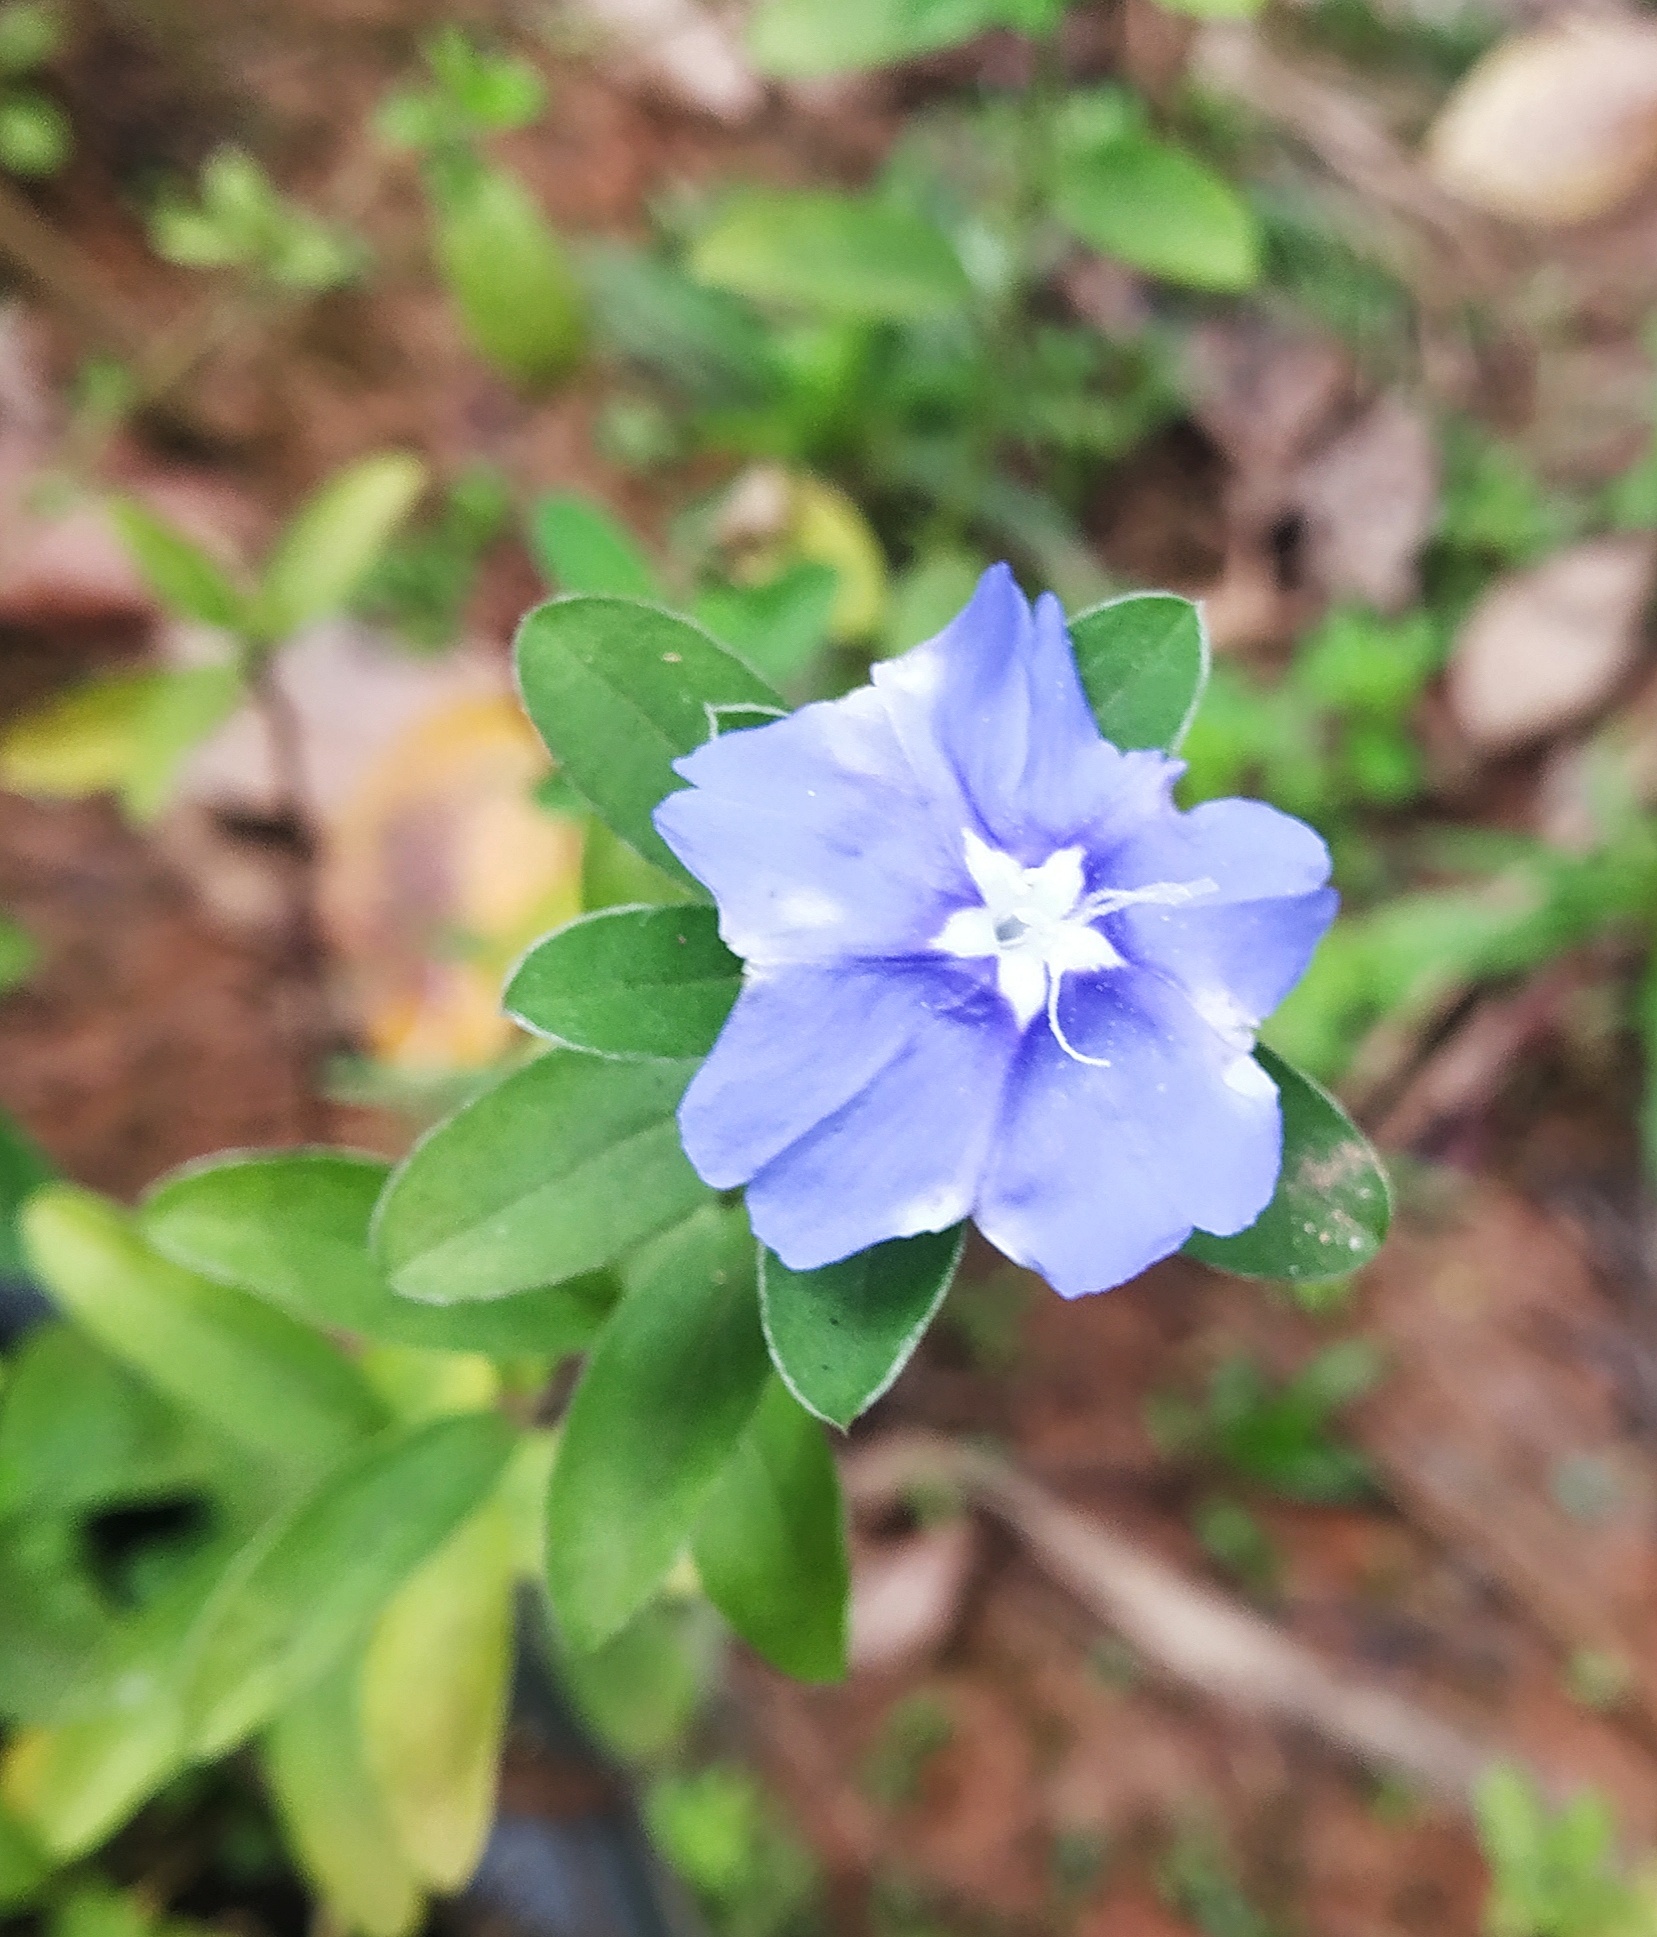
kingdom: Plantae
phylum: Tracheophyta
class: Magnoliopsida
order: Solanales
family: Convolvulaceae
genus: Evolvulus
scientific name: Evolvulus alsinoides
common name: Slender dwarf morning-glory
